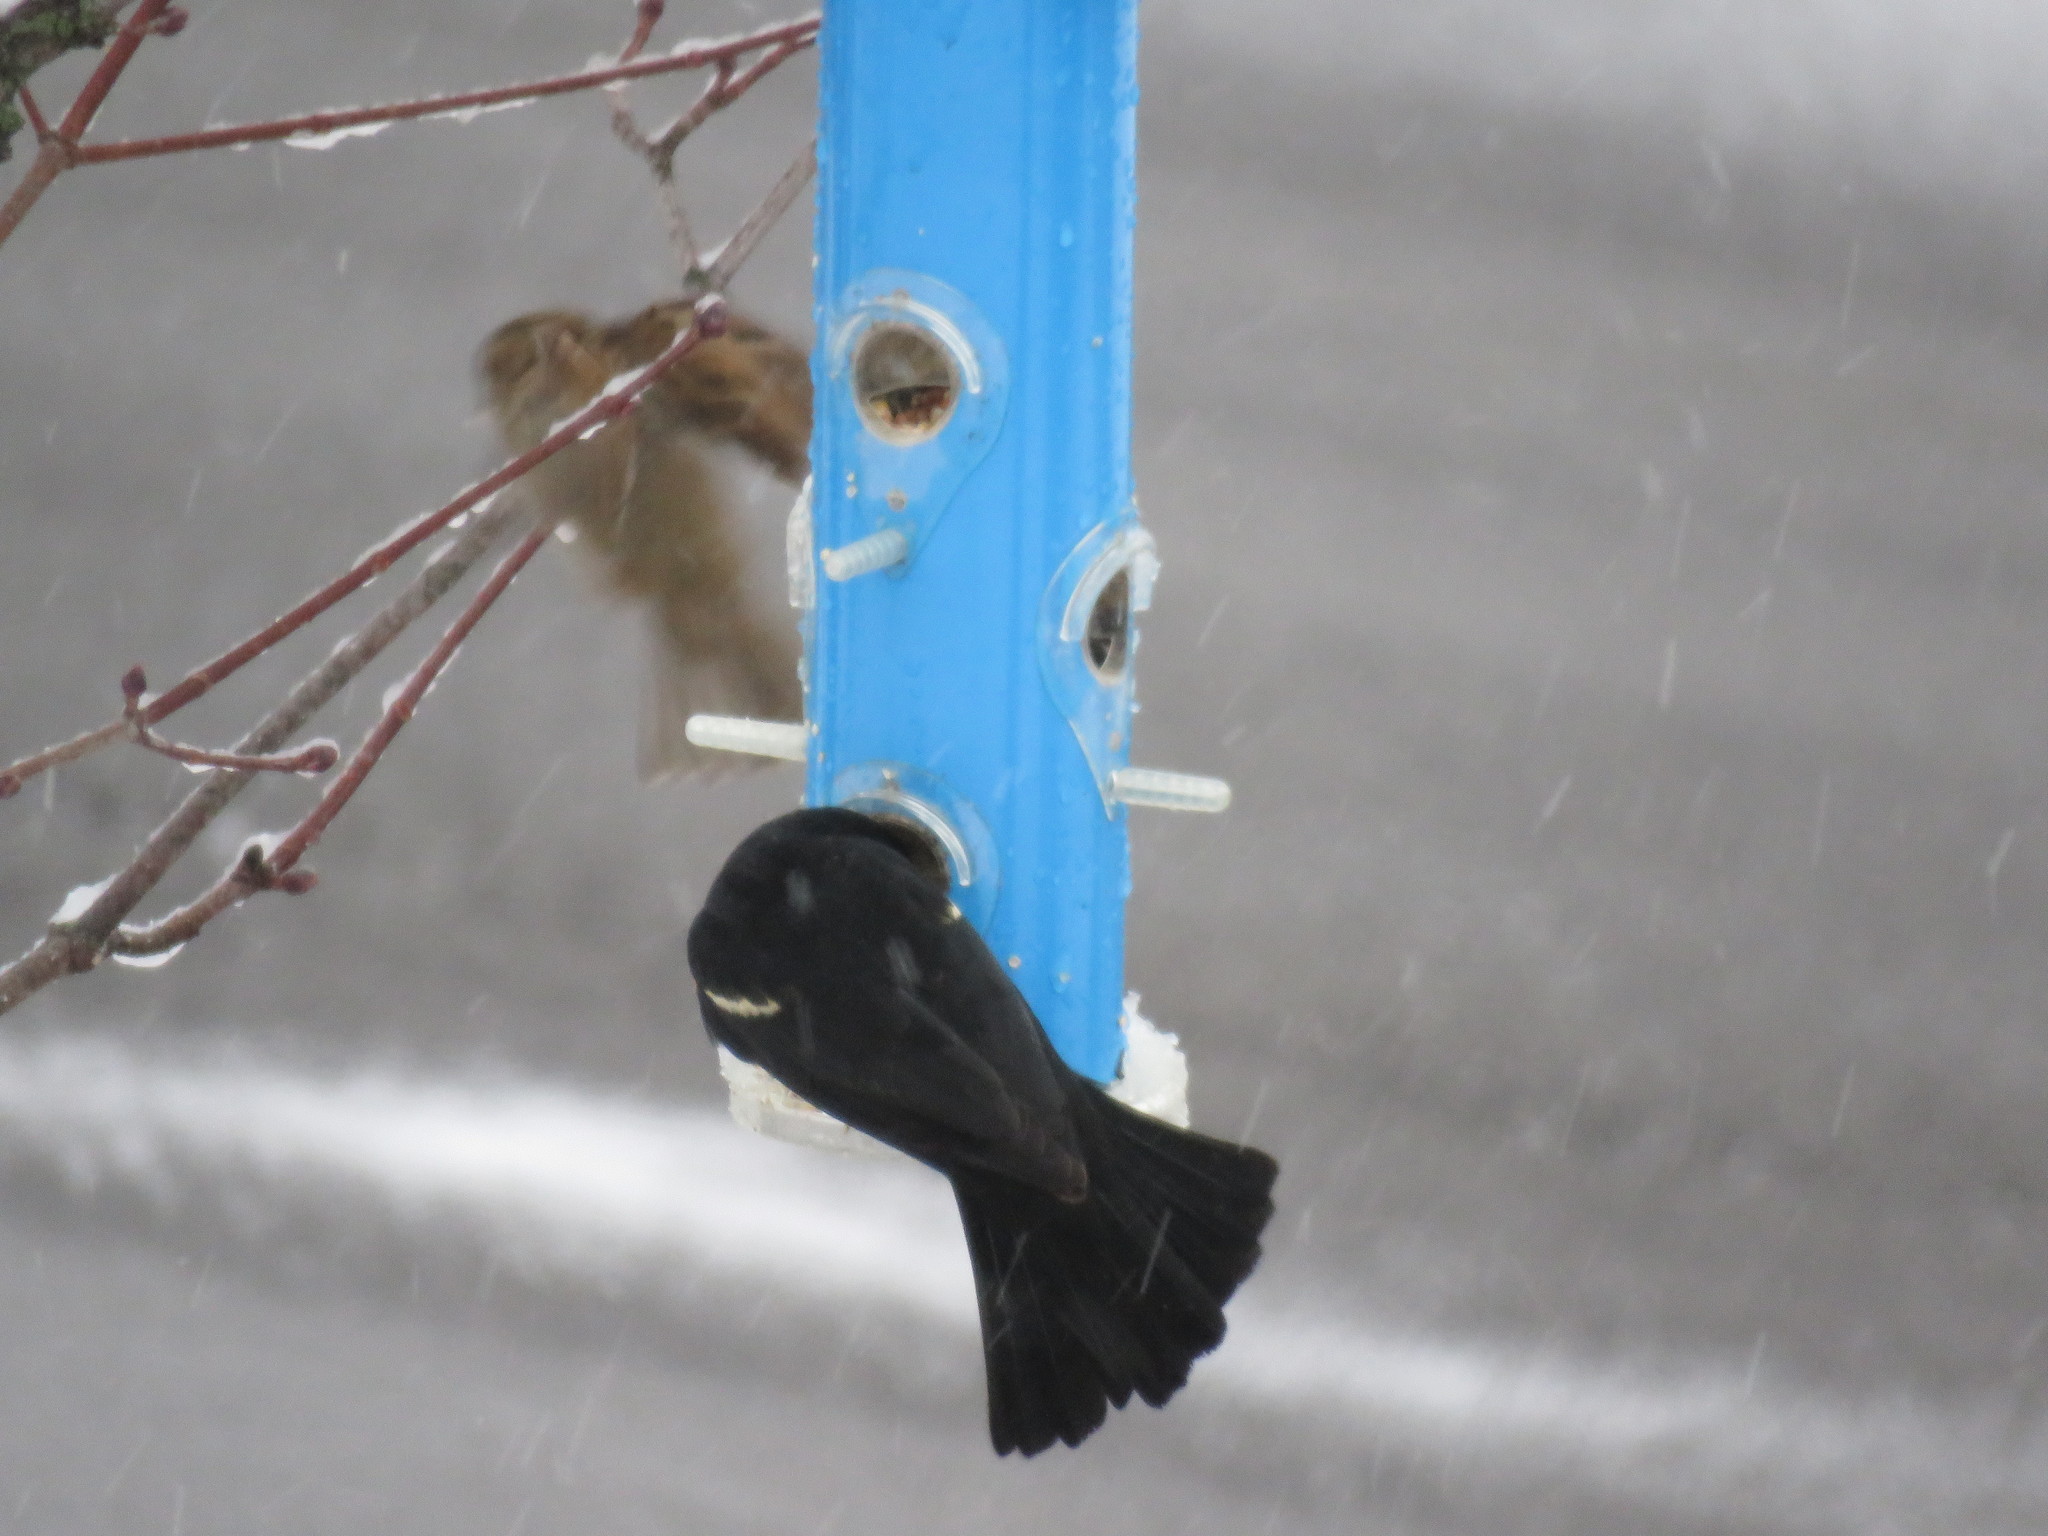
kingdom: Animalia
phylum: Chordata
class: Aves
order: Passeriformes
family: Icteridae
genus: Agelaius
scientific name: Agelaius phoeniceus
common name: Red-winged blackbird
